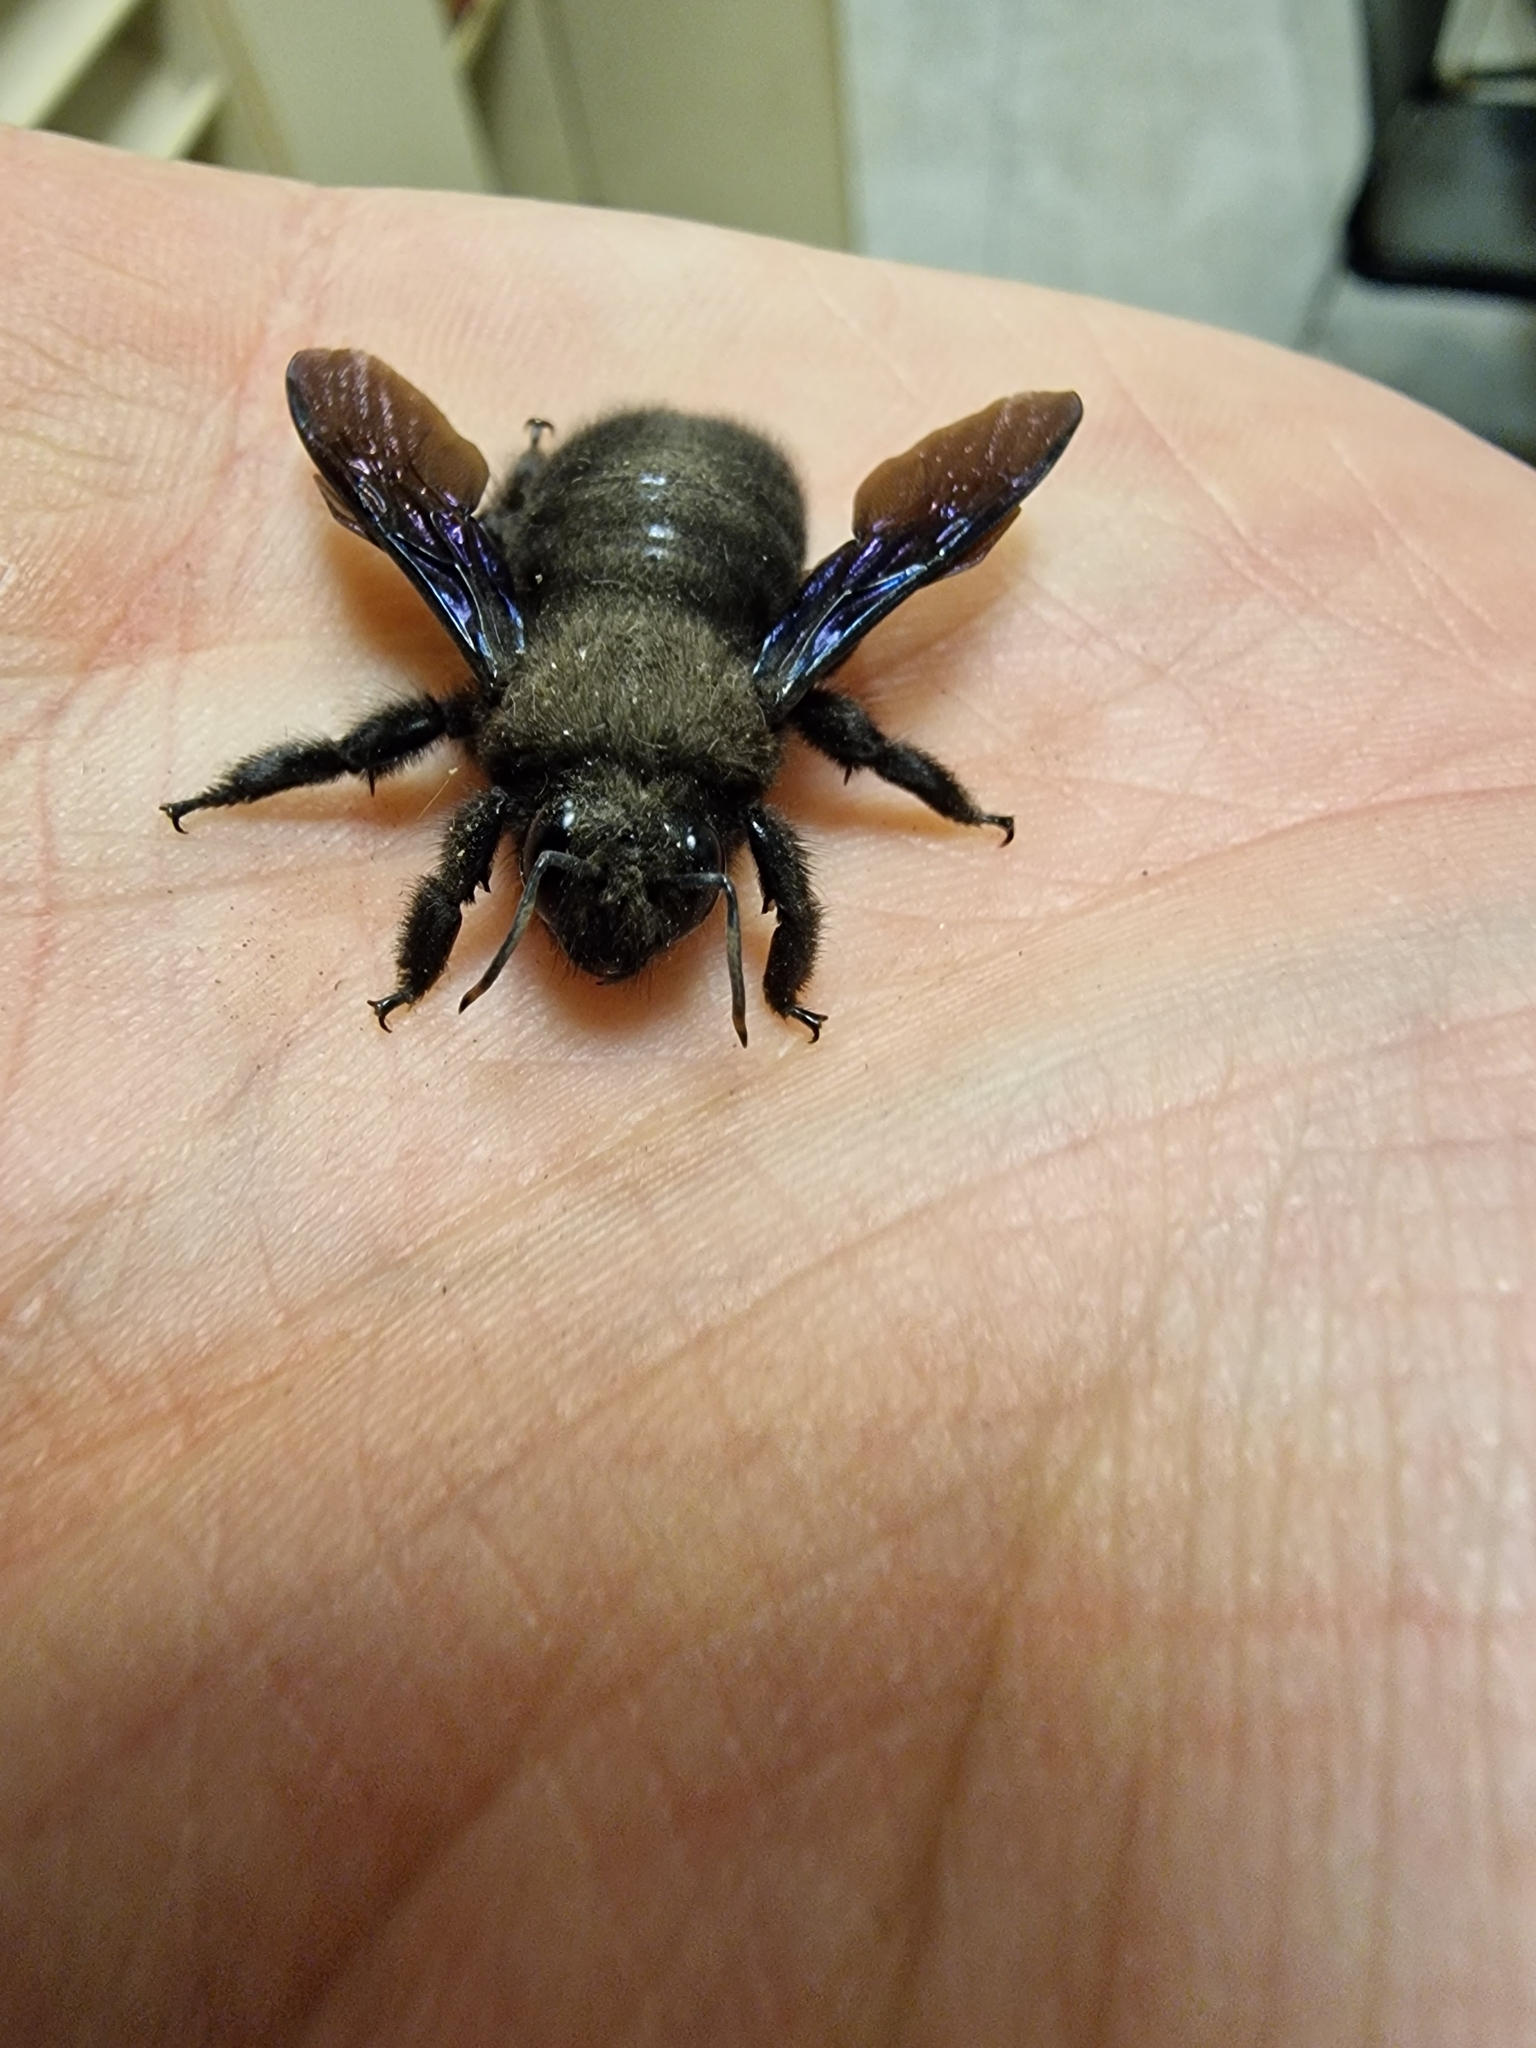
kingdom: Animalia
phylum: Arthropoda
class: Insecta
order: Hymenoptera
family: Apidae
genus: Xylocopa
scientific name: Xylocopa violacea
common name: Violet carpenter bee
